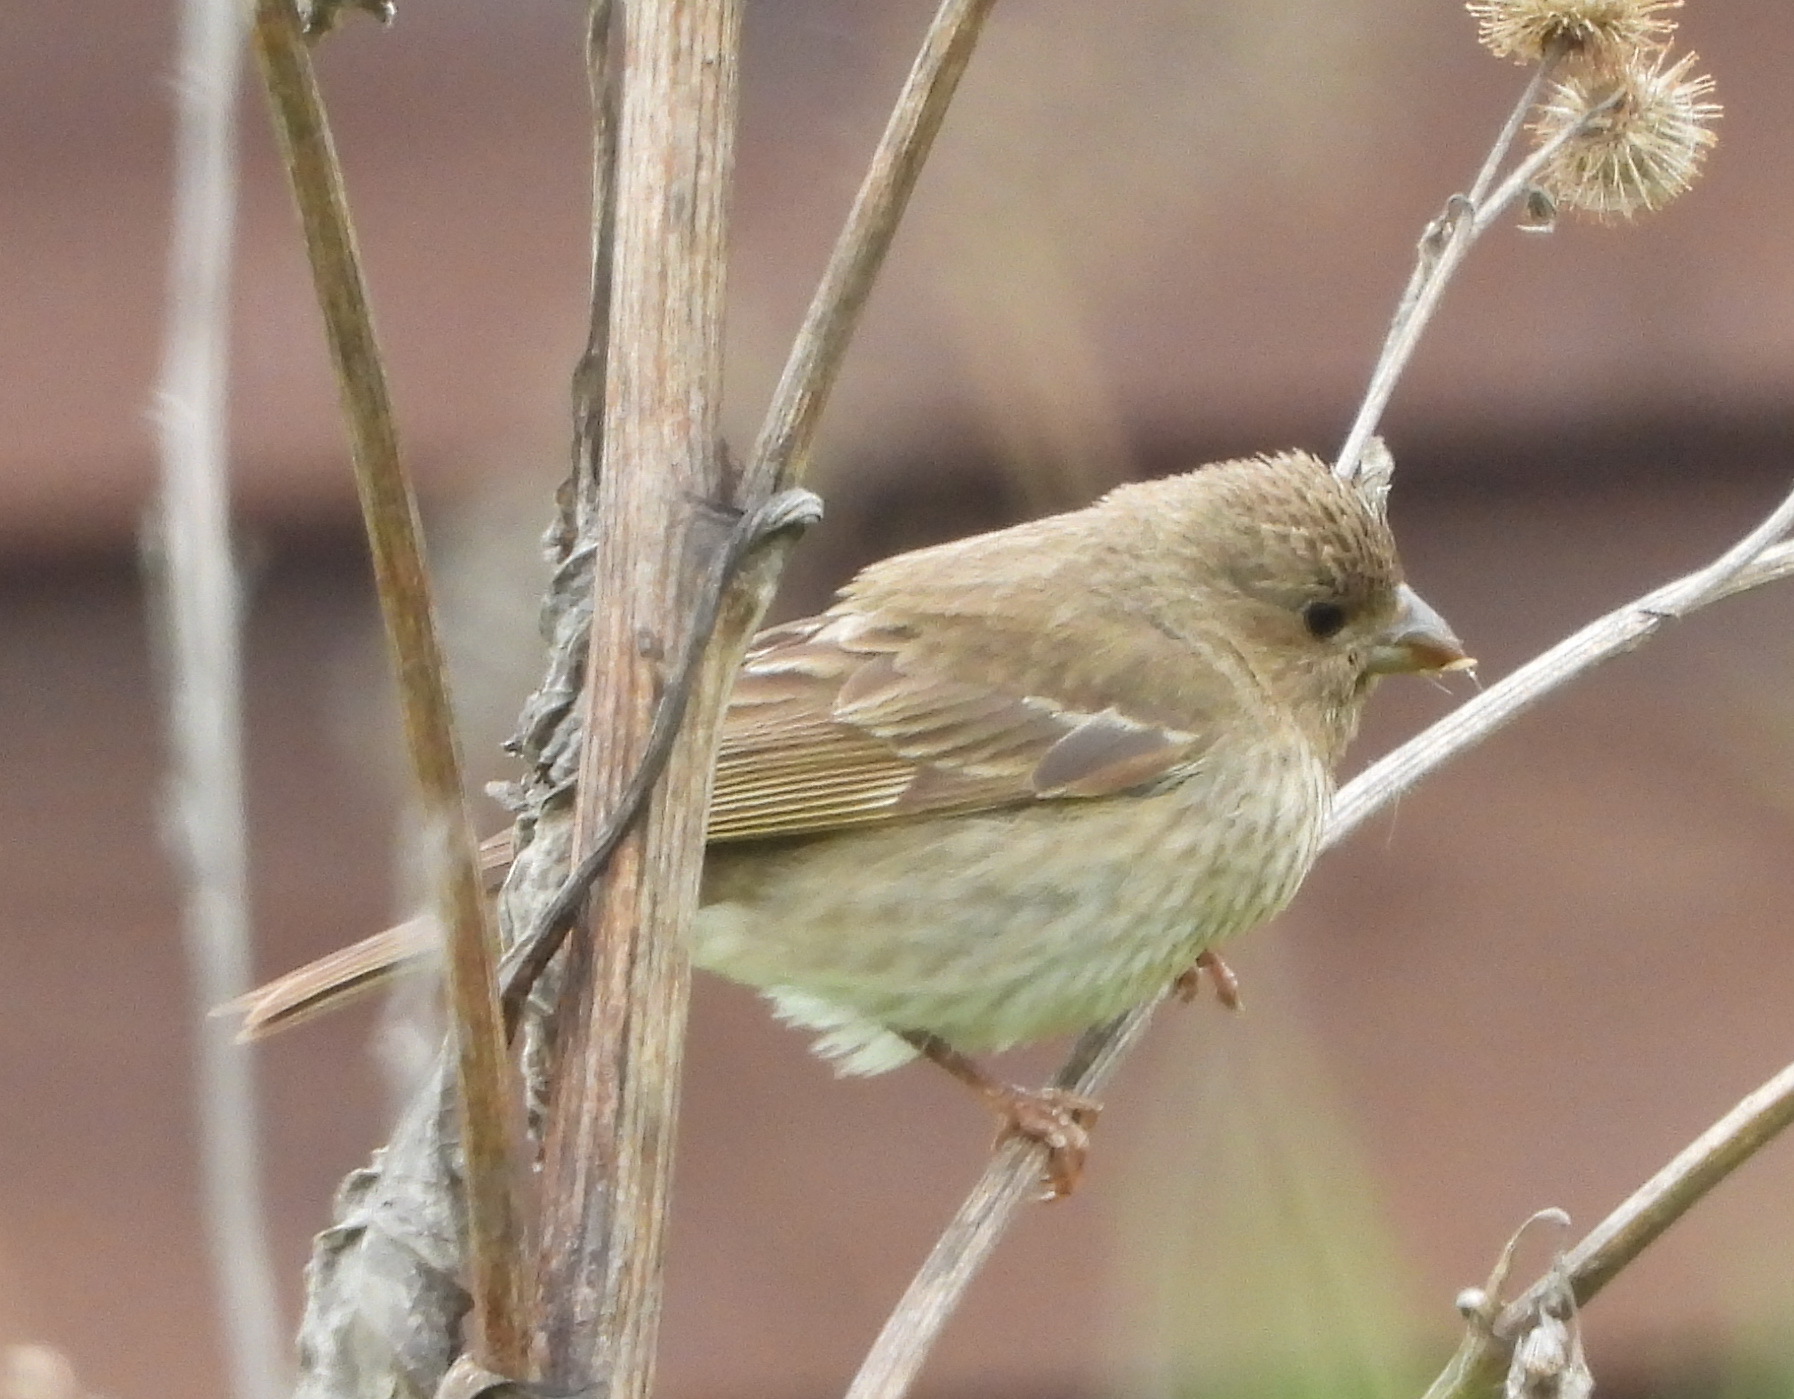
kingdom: Animalia
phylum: Chordata
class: Aves
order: Passeriformes
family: Fringillidae
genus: Carpodacus
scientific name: Carpodacus erythrinus
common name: Common rosefinch
